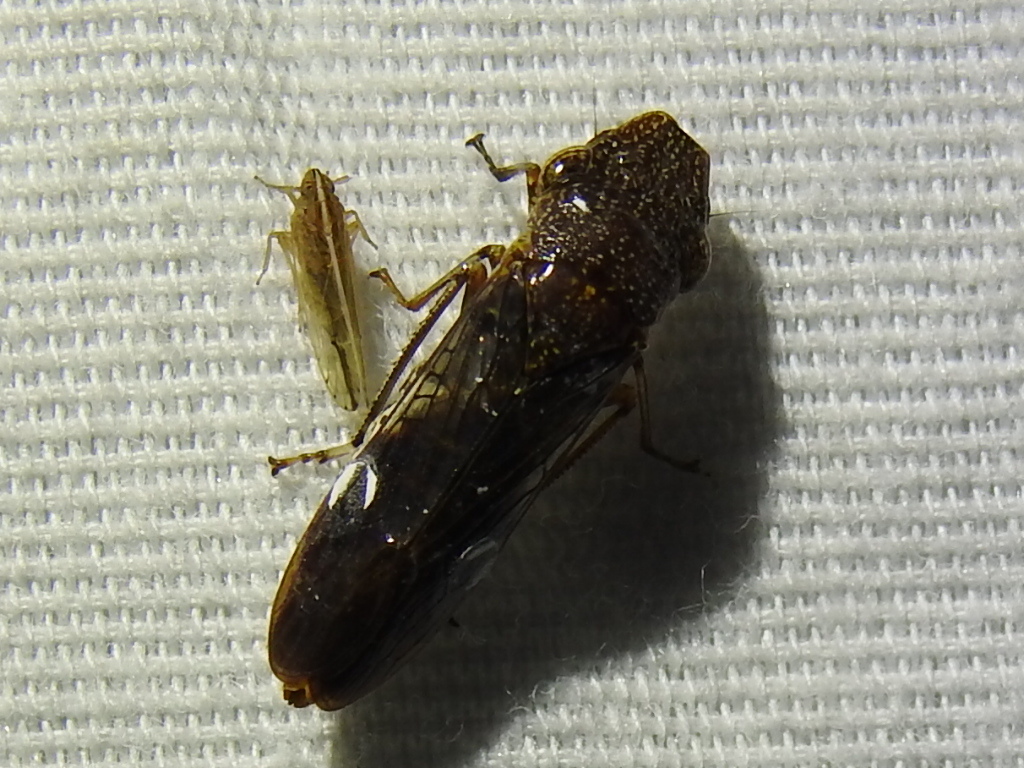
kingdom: Animalia
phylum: Arthropoda
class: Insecta
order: Hemiptera
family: Cicadellidae
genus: Homalodisca
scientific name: Homalodisca vitripennis
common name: Glassy-winged sharpshooter
